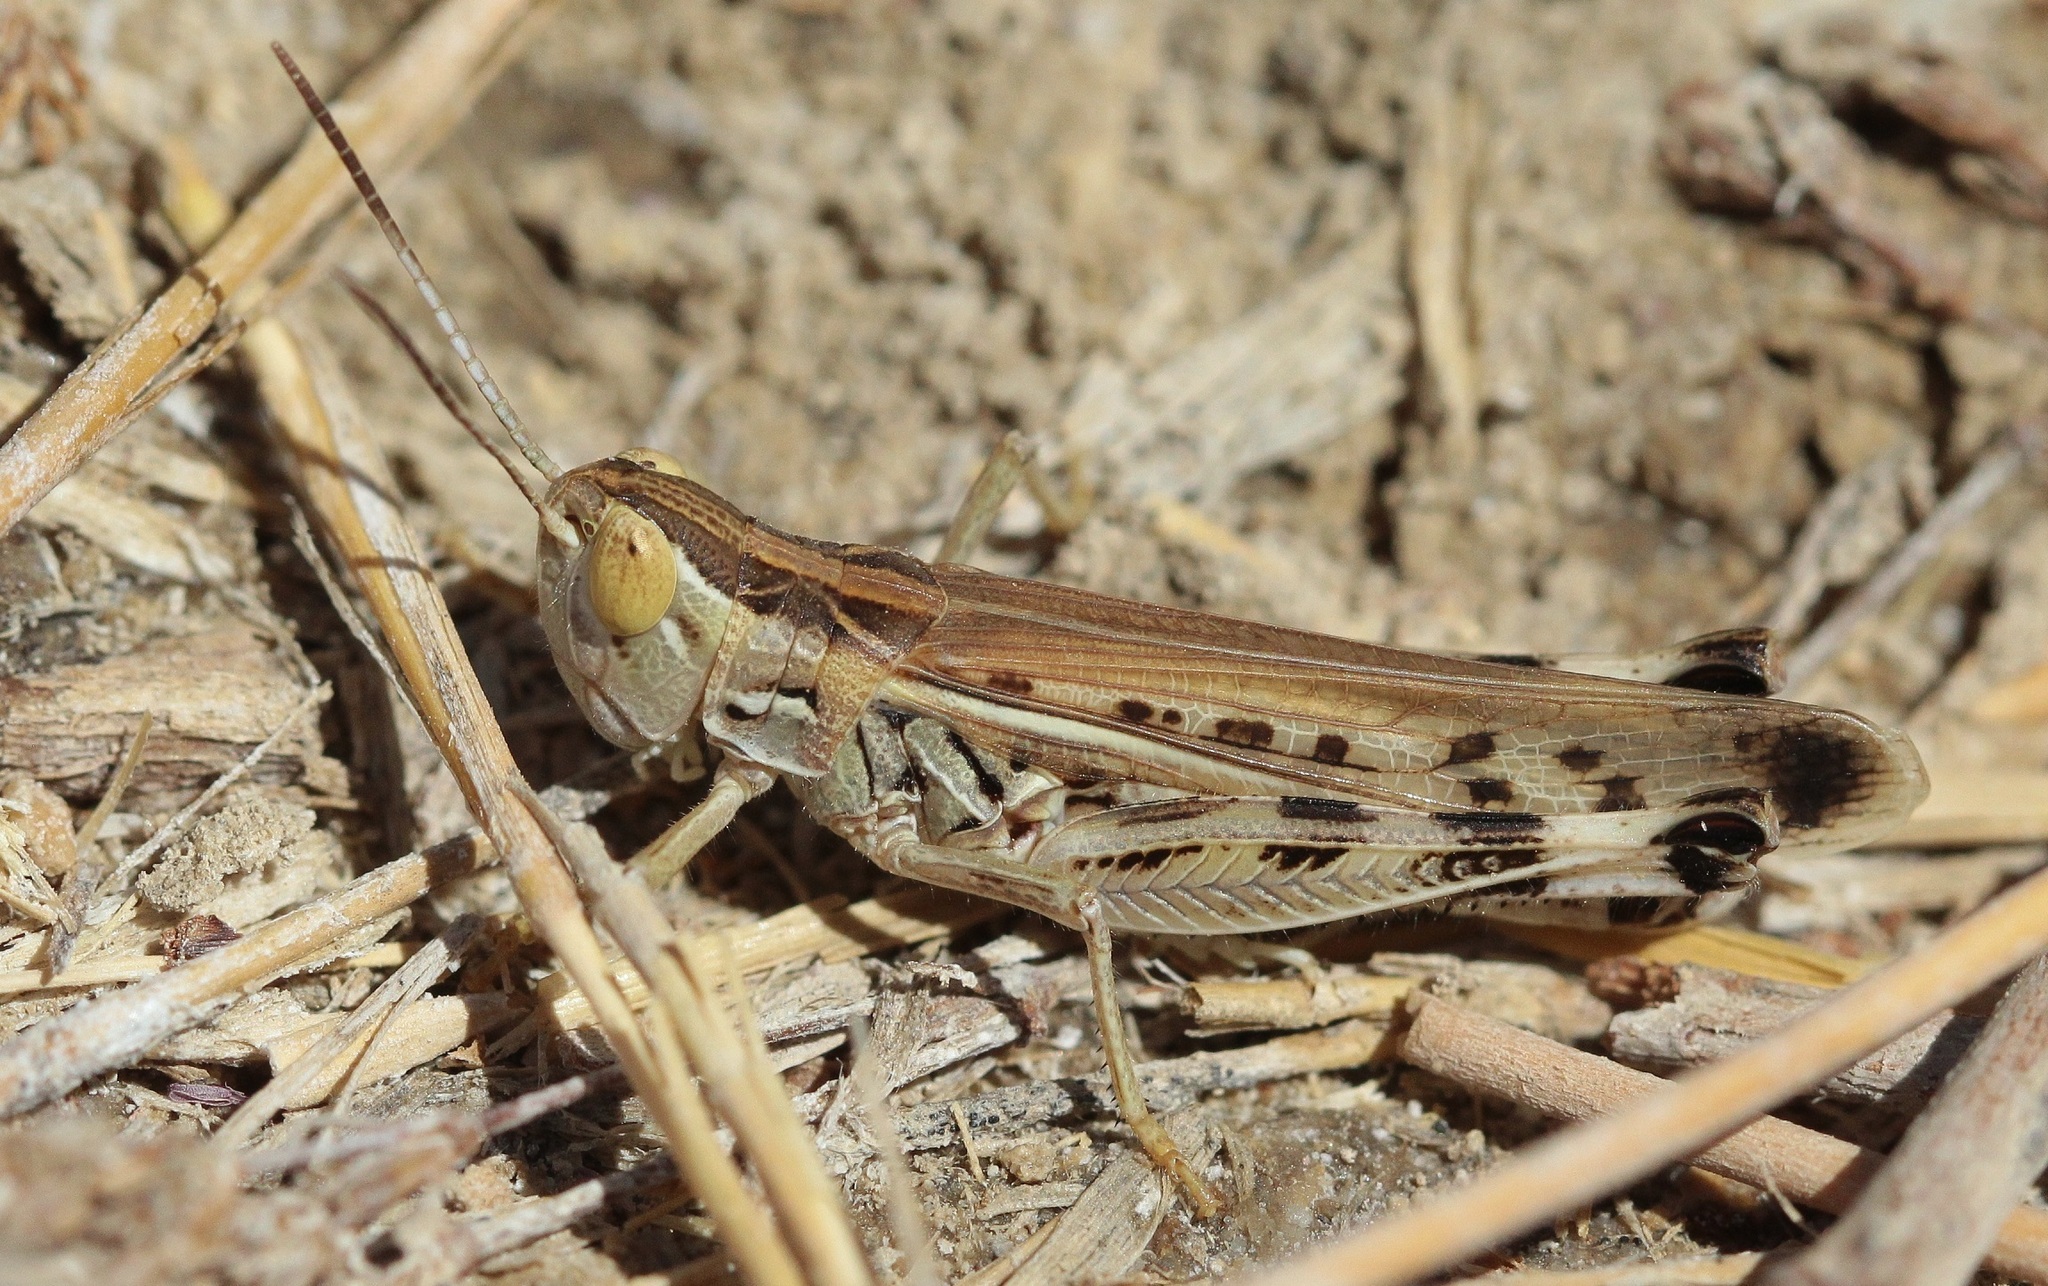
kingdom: Animalia
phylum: Arthropoda
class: Insecta
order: Orthoptera
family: Acrididae
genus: Ramburiella
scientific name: Ramburiella turcomana
